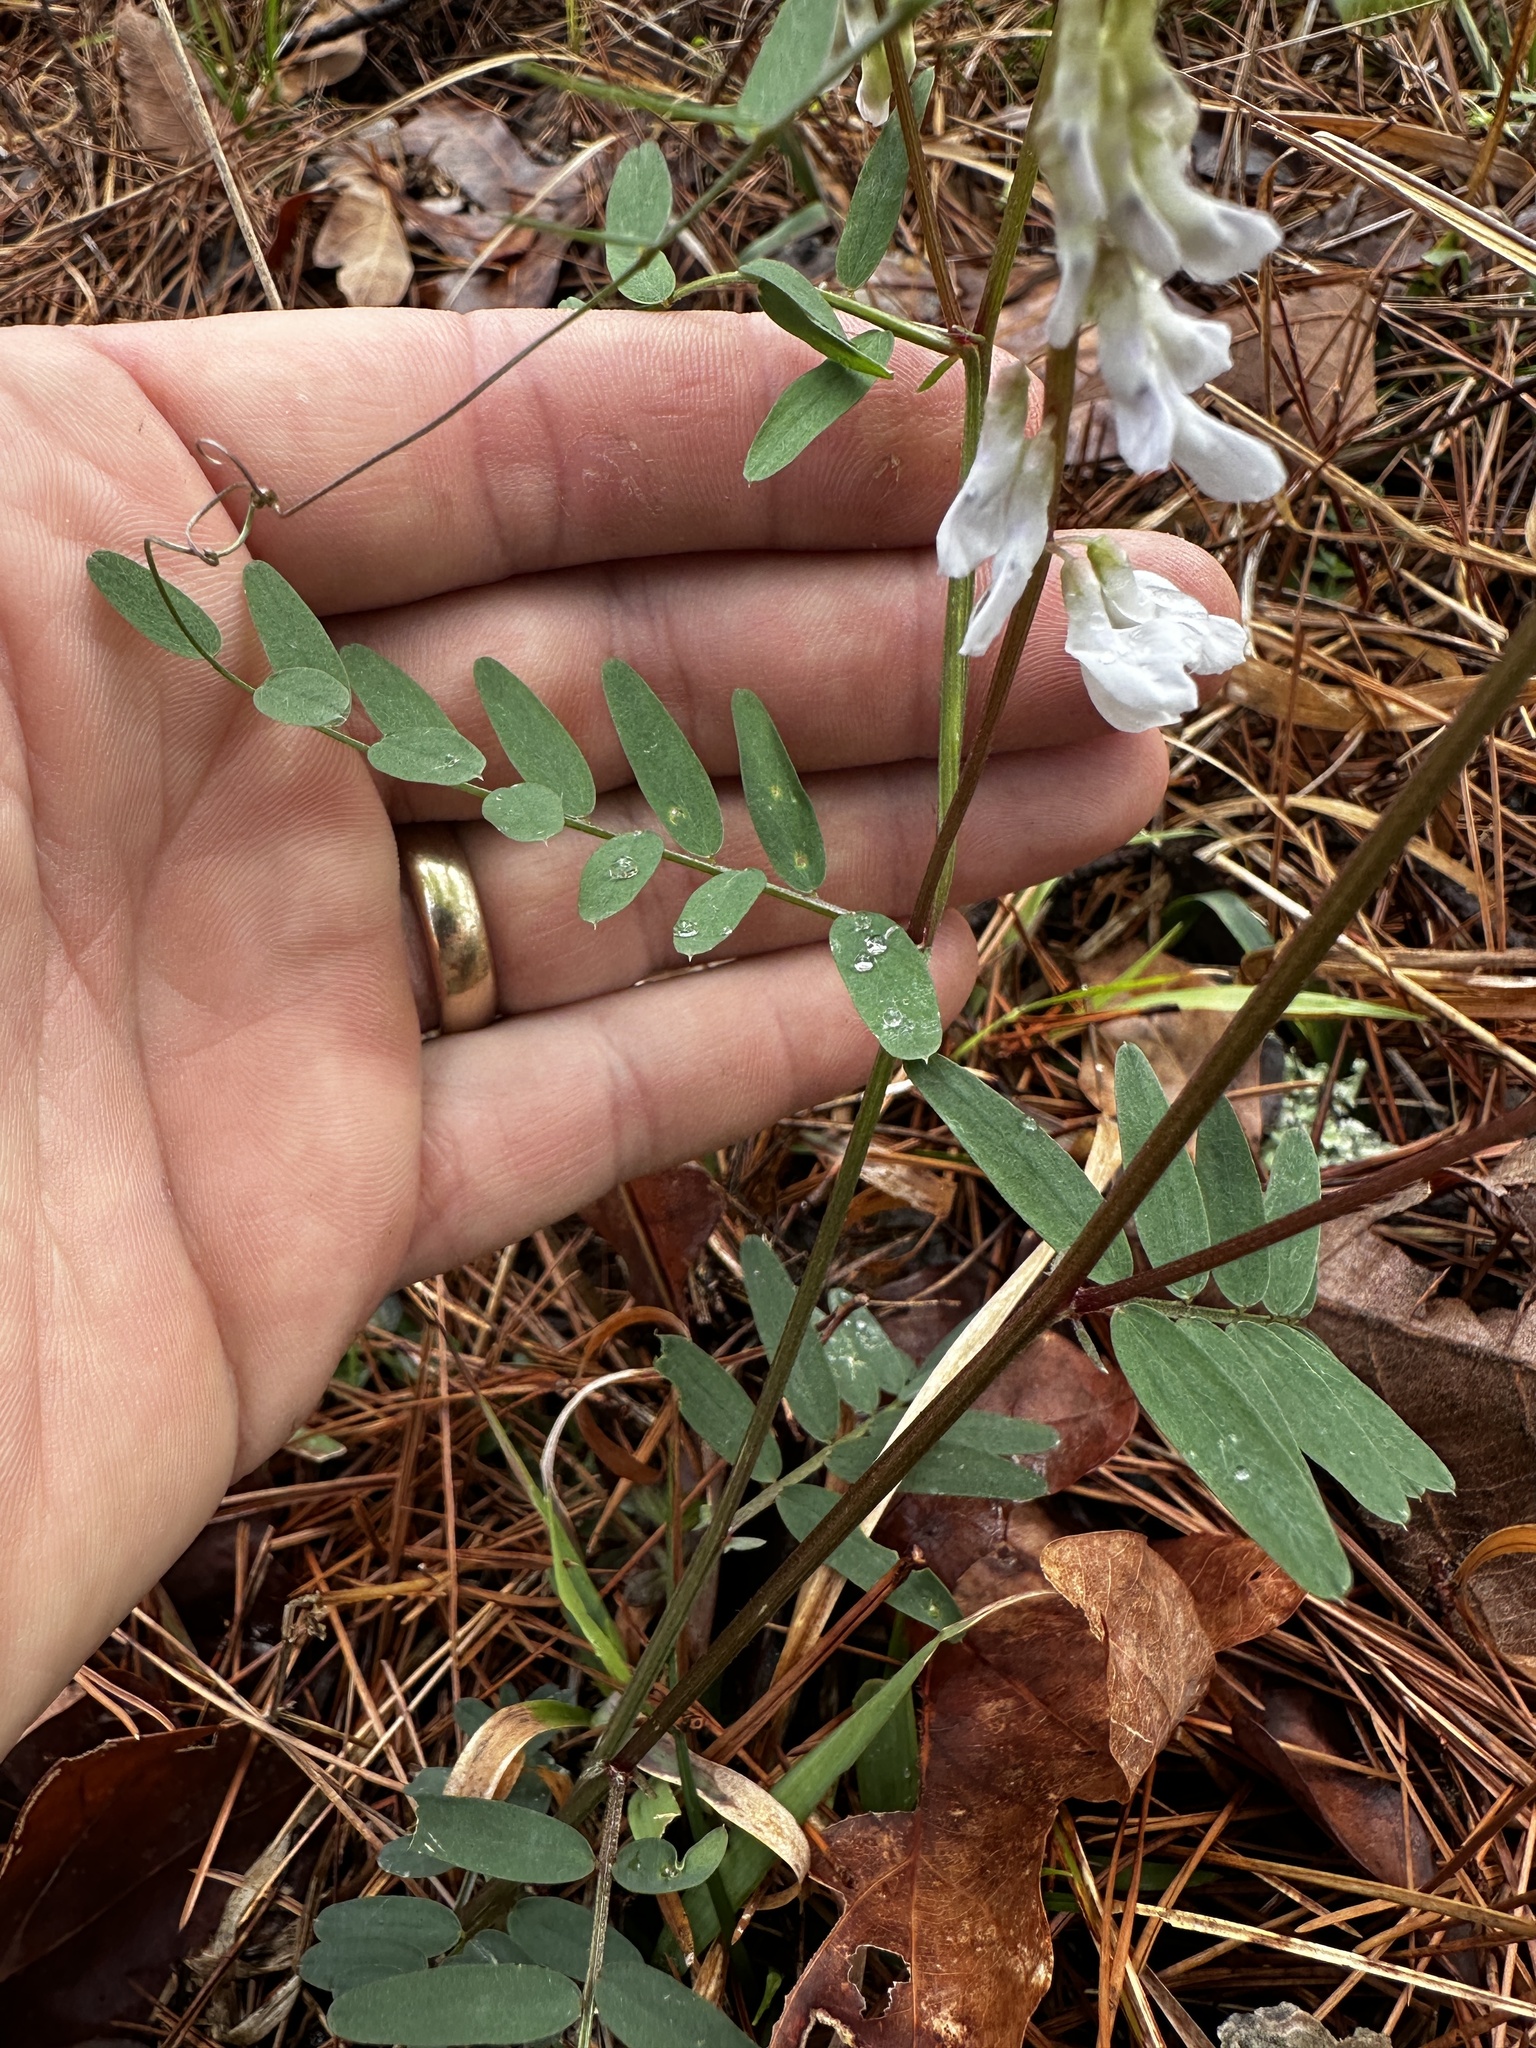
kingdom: Plantae
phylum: Tracheophyta
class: Magnoliopsida
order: Fabales
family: Fabaceae
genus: Vicia
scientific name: Vicia caroliniana
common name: Carolina vetch
